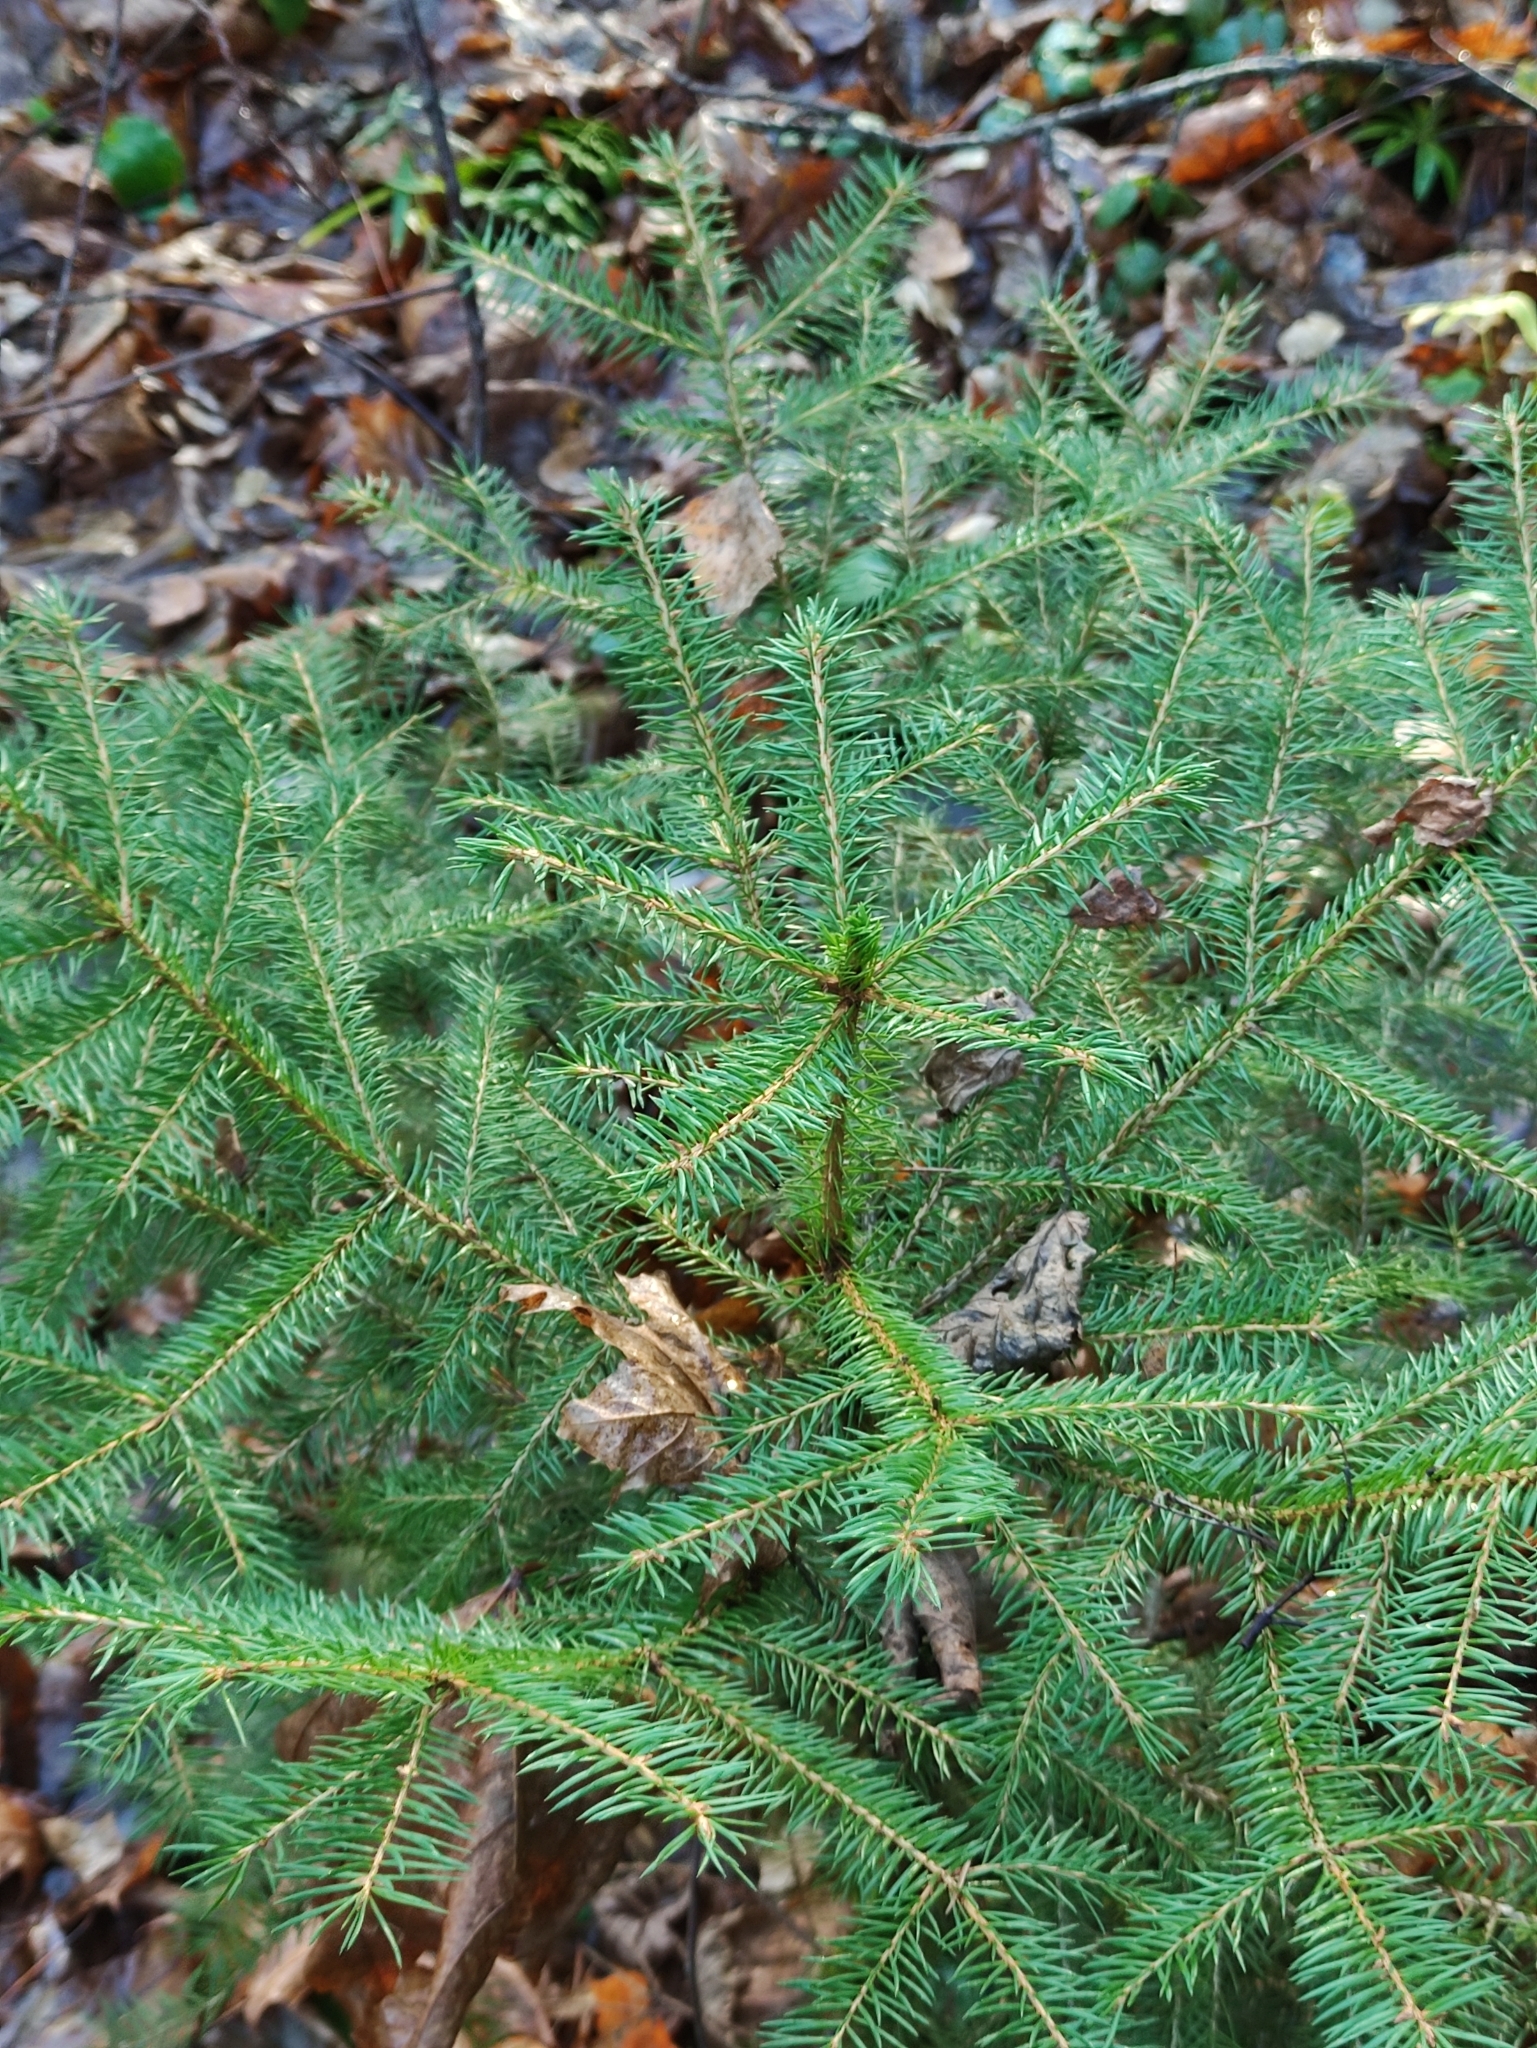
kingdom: Plantae
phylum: Tracheophyta
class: Pinopsida
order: Pinales
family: Pinaceae
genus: Picea
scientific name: Picea abies
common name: Norway spruce
